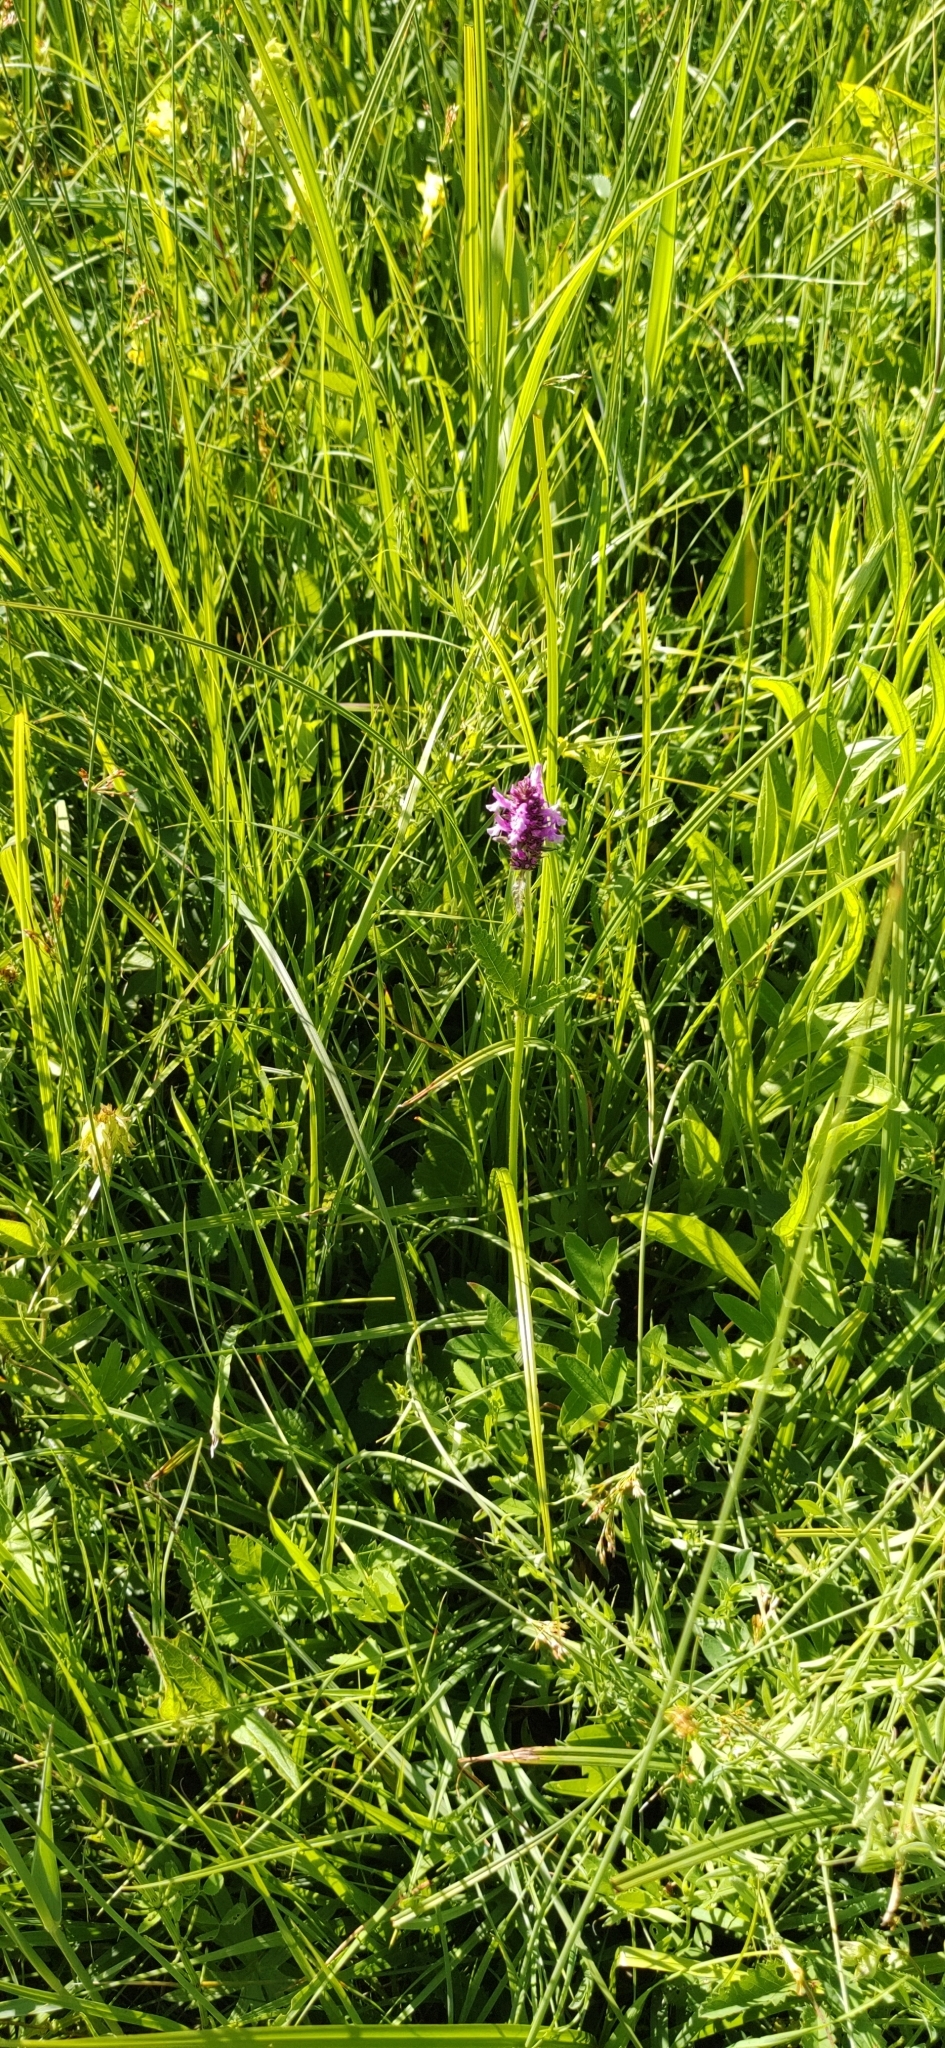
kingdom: Plantae
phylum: Tracheophyta
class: Magnoliopsida
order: Lamiales
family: Lamiaceae
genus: Betonica
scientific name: Betonica officinalis
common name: Bishop's-wort
